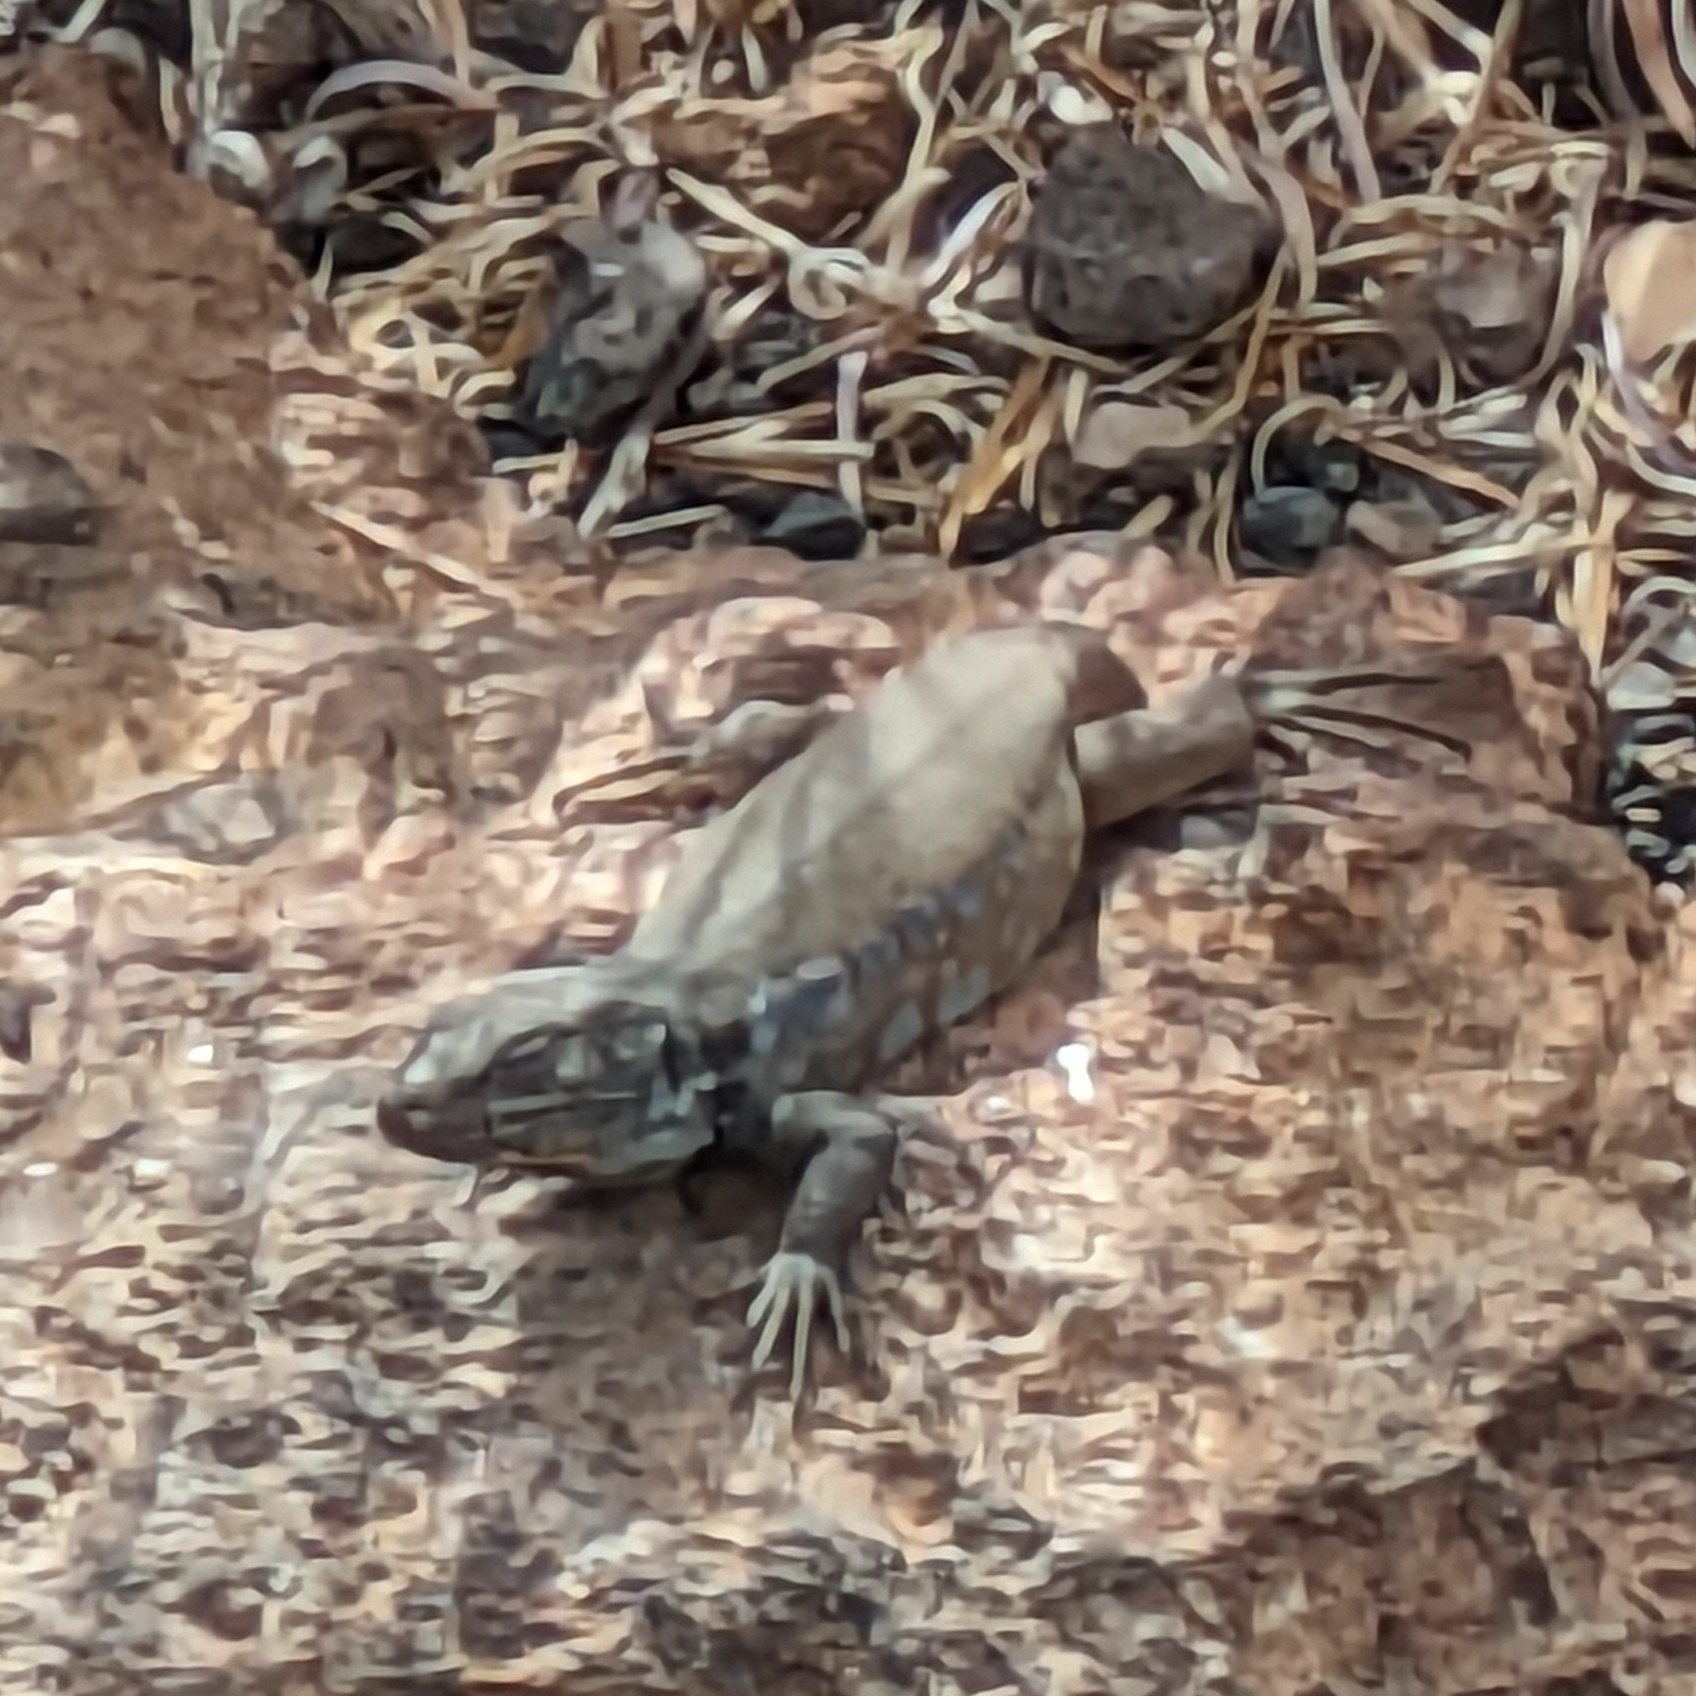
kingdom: Animalia
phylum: Chordata
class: Squamata
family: Lacertidae
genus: Gallotia
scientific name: Gallotia galloti
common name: Gallot's lizard
